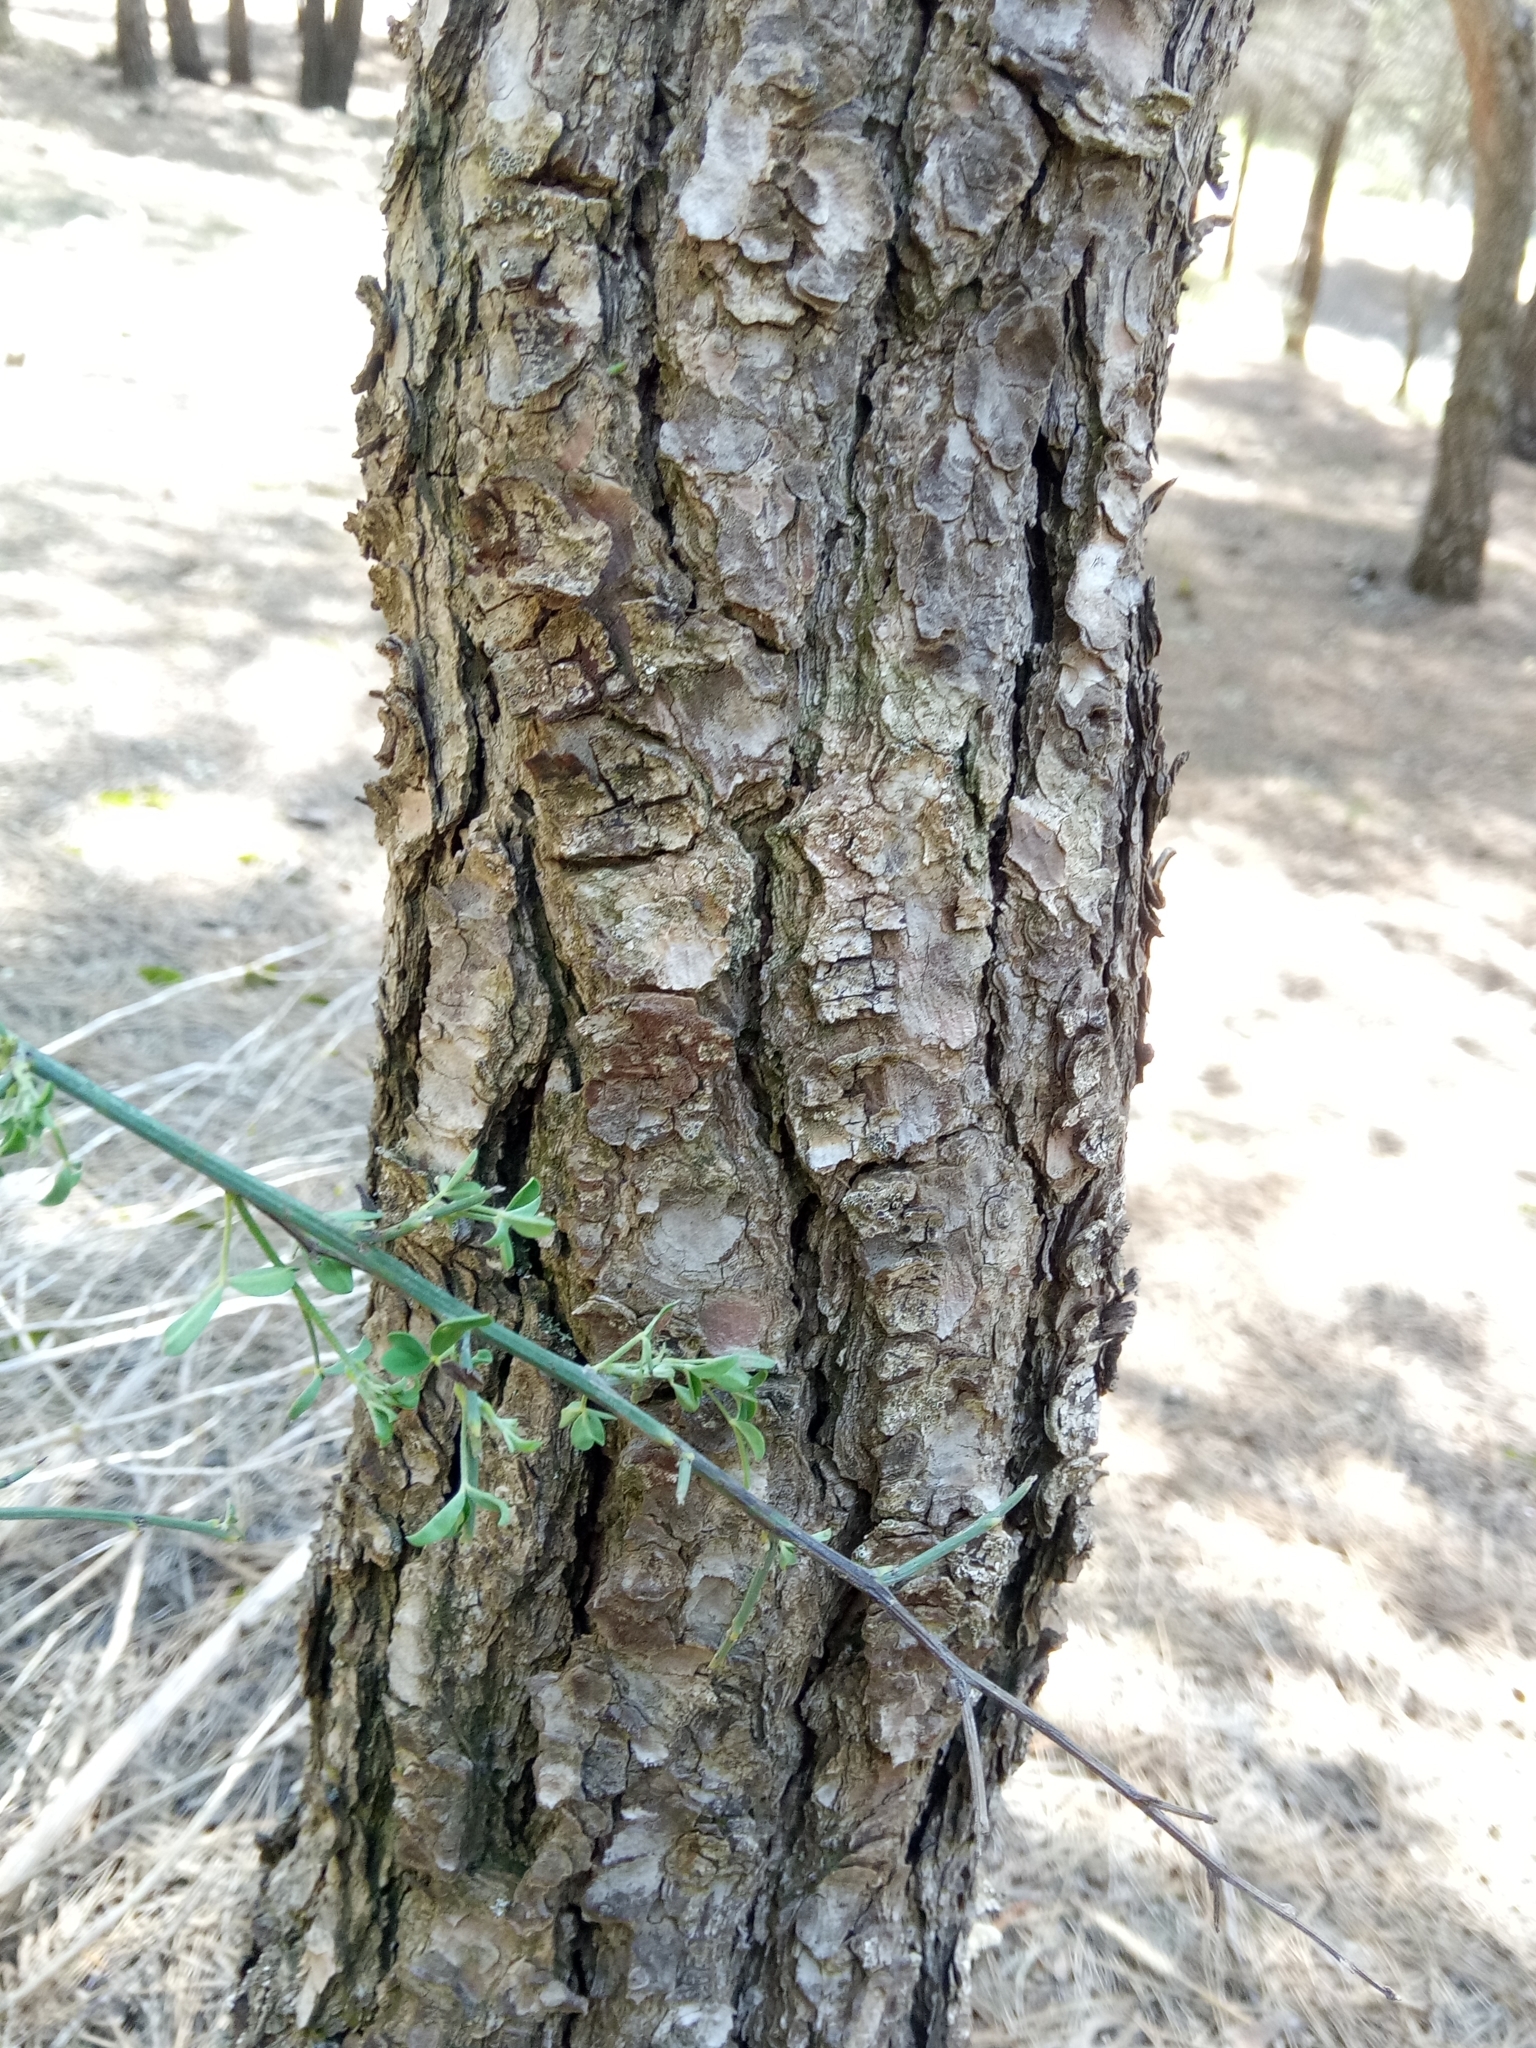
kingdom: Plantae
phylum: Tracheophyta
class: Pinopsida
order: Pinales
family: Pinaceae
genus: Pinus
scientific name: Pinus halepensis
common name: Aleppo pine
